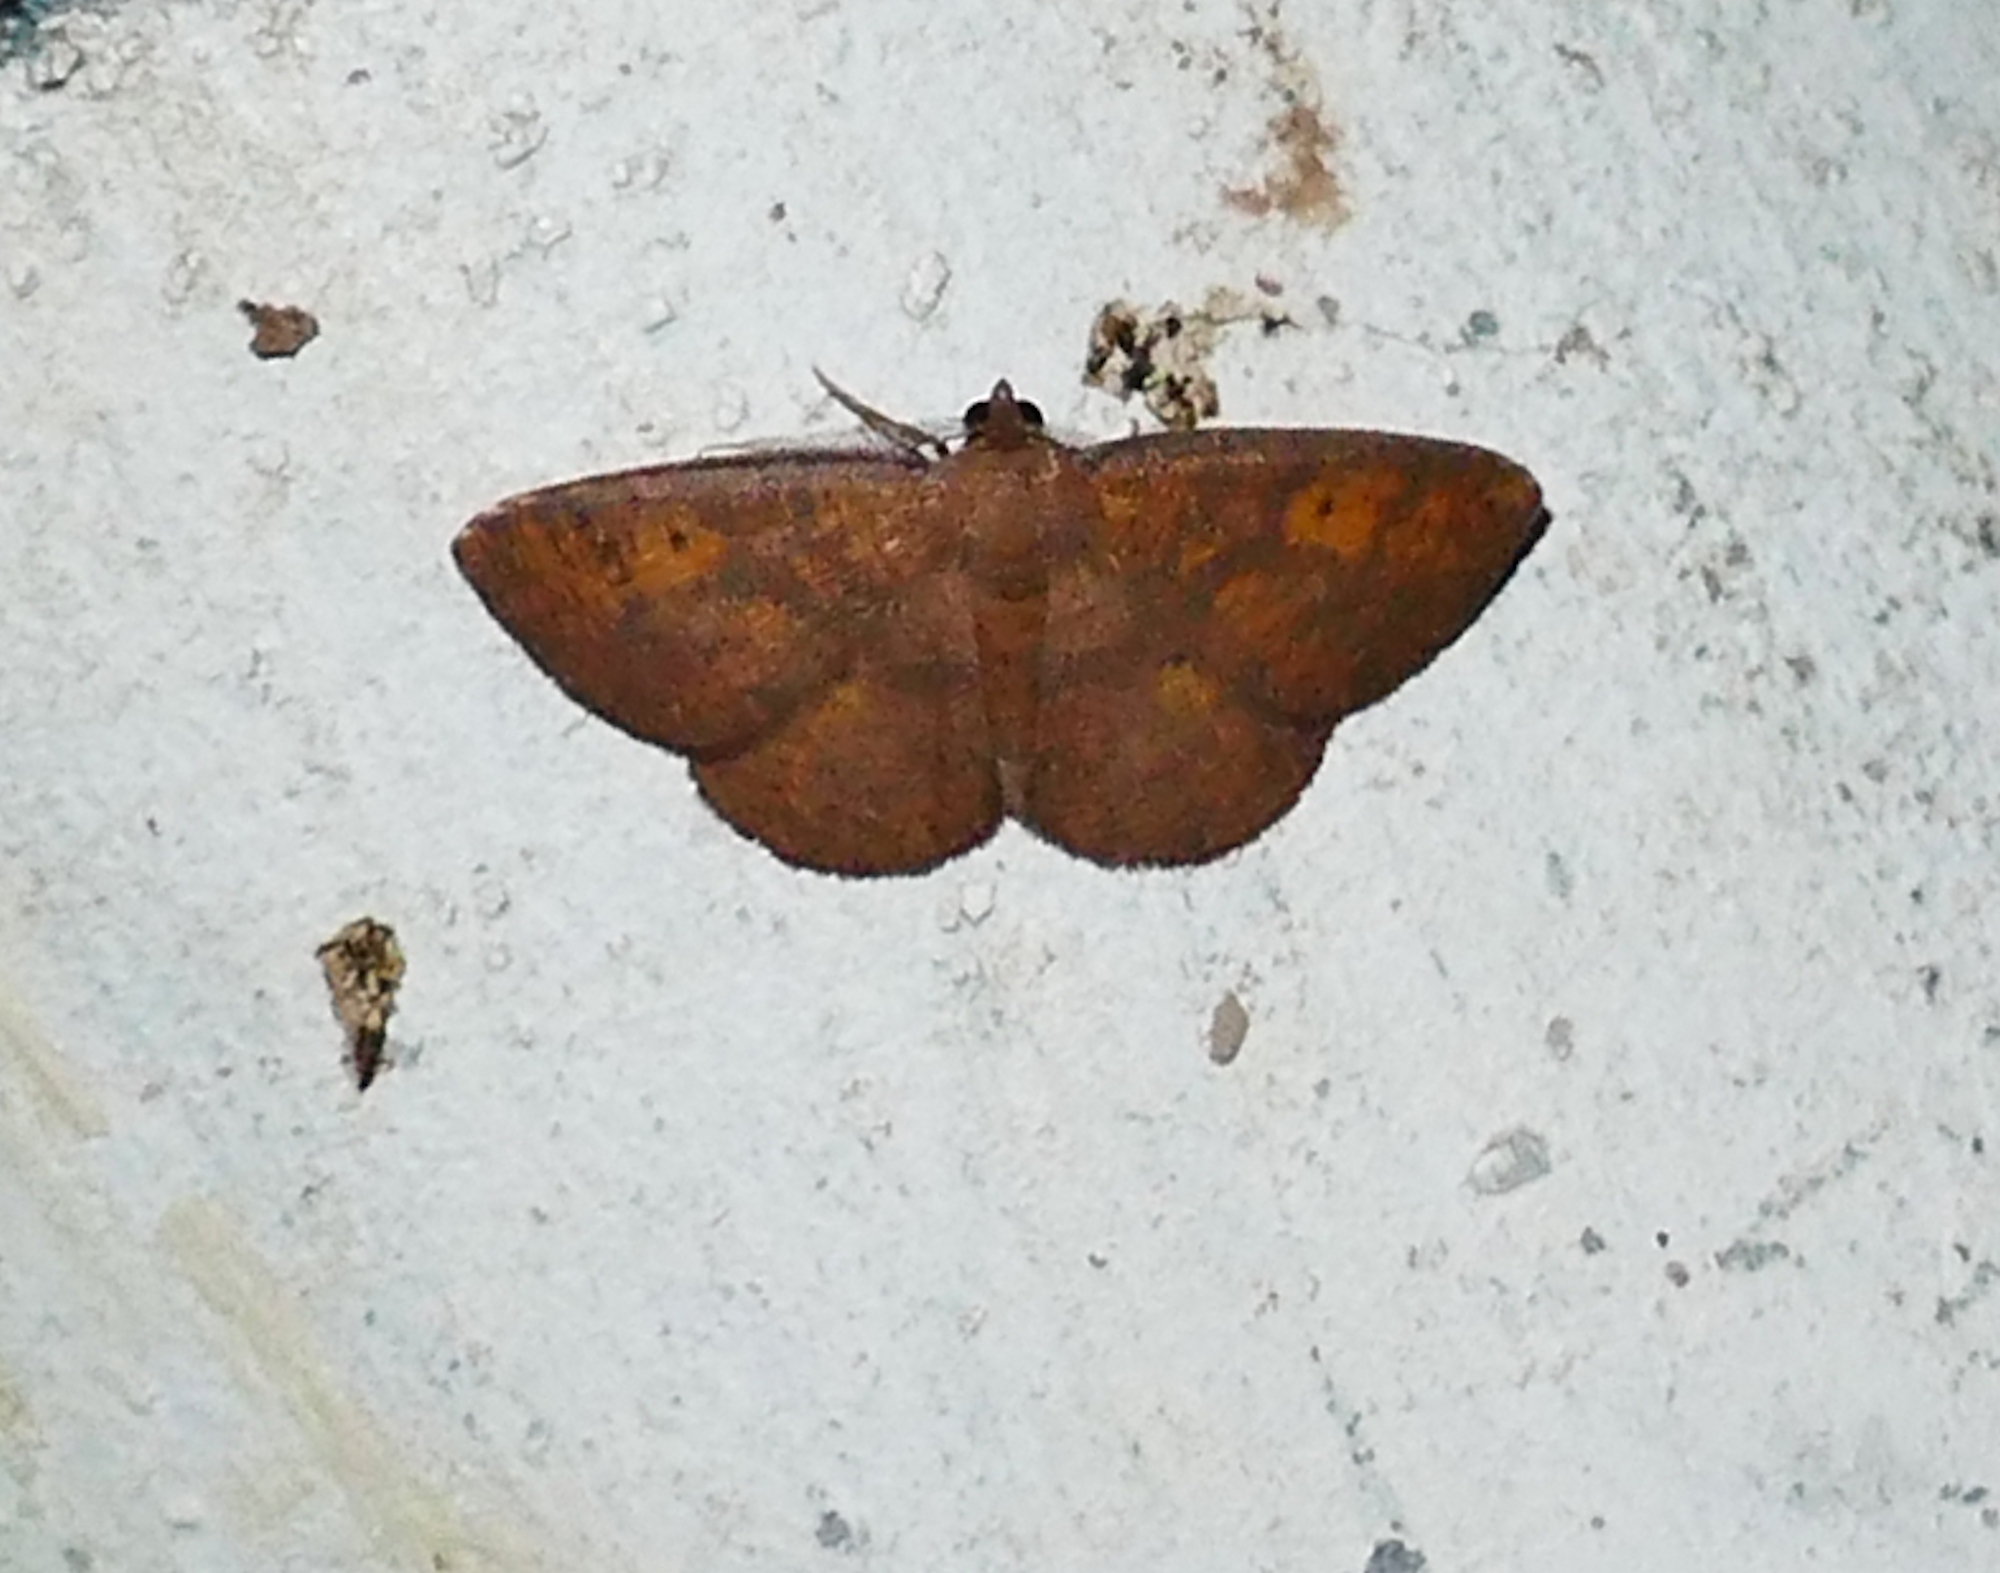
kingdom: Animalia
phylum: Arthropoda
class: Insecta
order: Lepidoptera
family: Geometridae
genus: Ilexia
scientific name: Ilexia intractata
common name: Black-dotted ruddy moth
